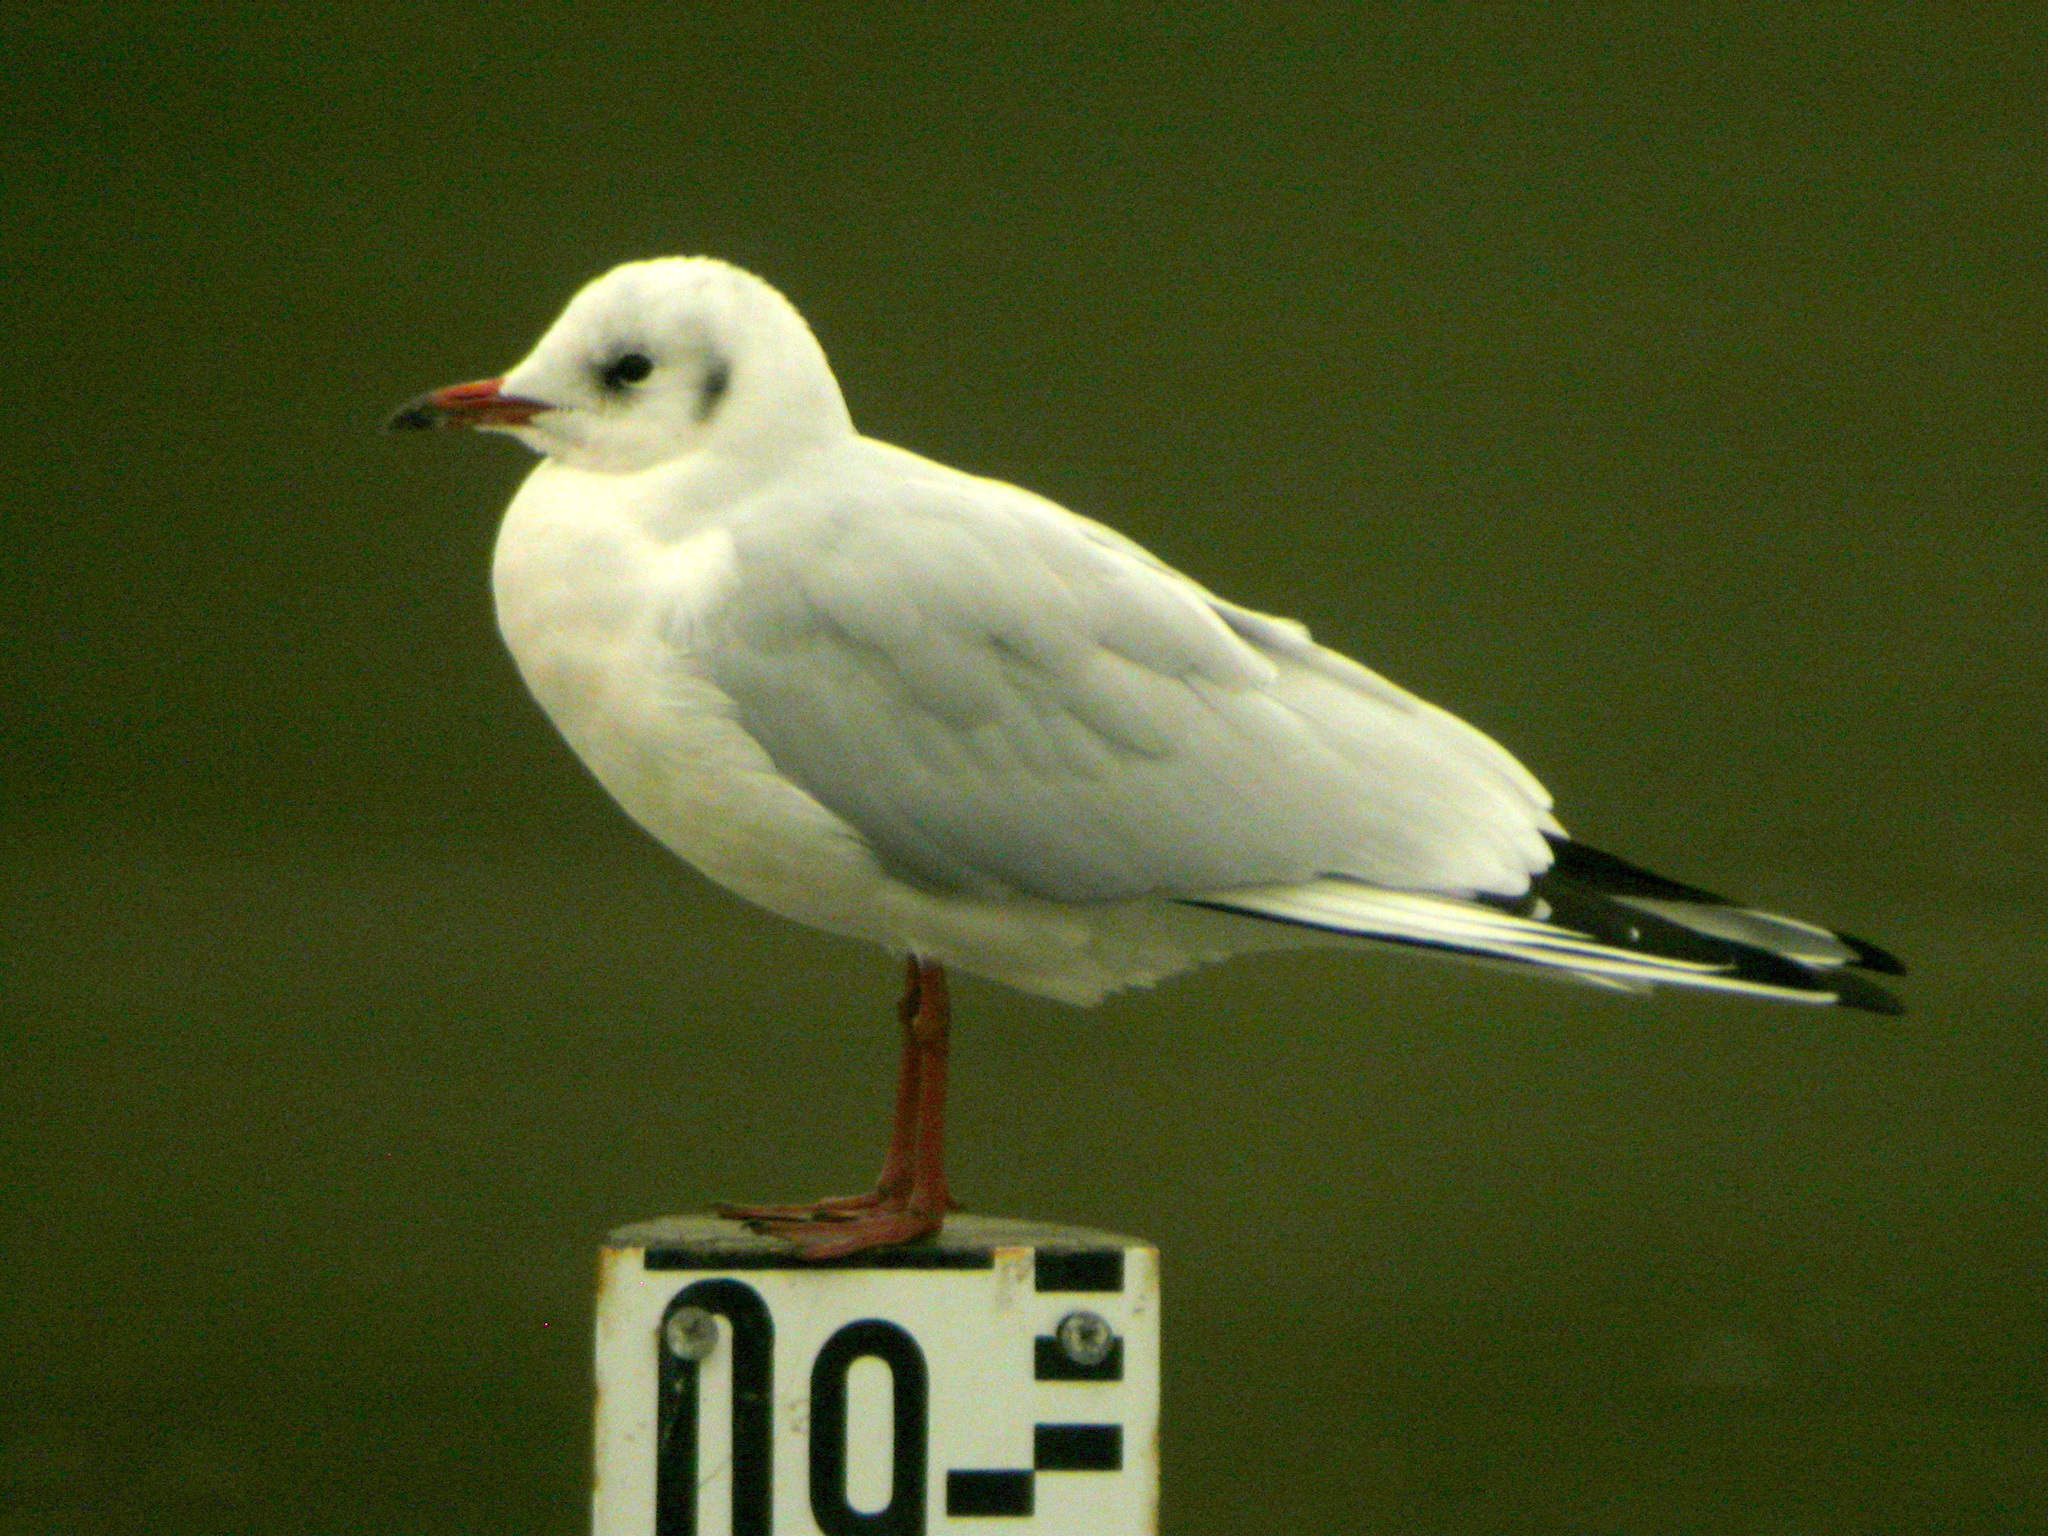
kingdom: Animalia
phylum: Chordata
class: Aves
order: Charadriiformes
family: Laridae
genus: Chroicocephalus
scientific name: Chroicocephalus ridibundus
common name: Black-headed gull
